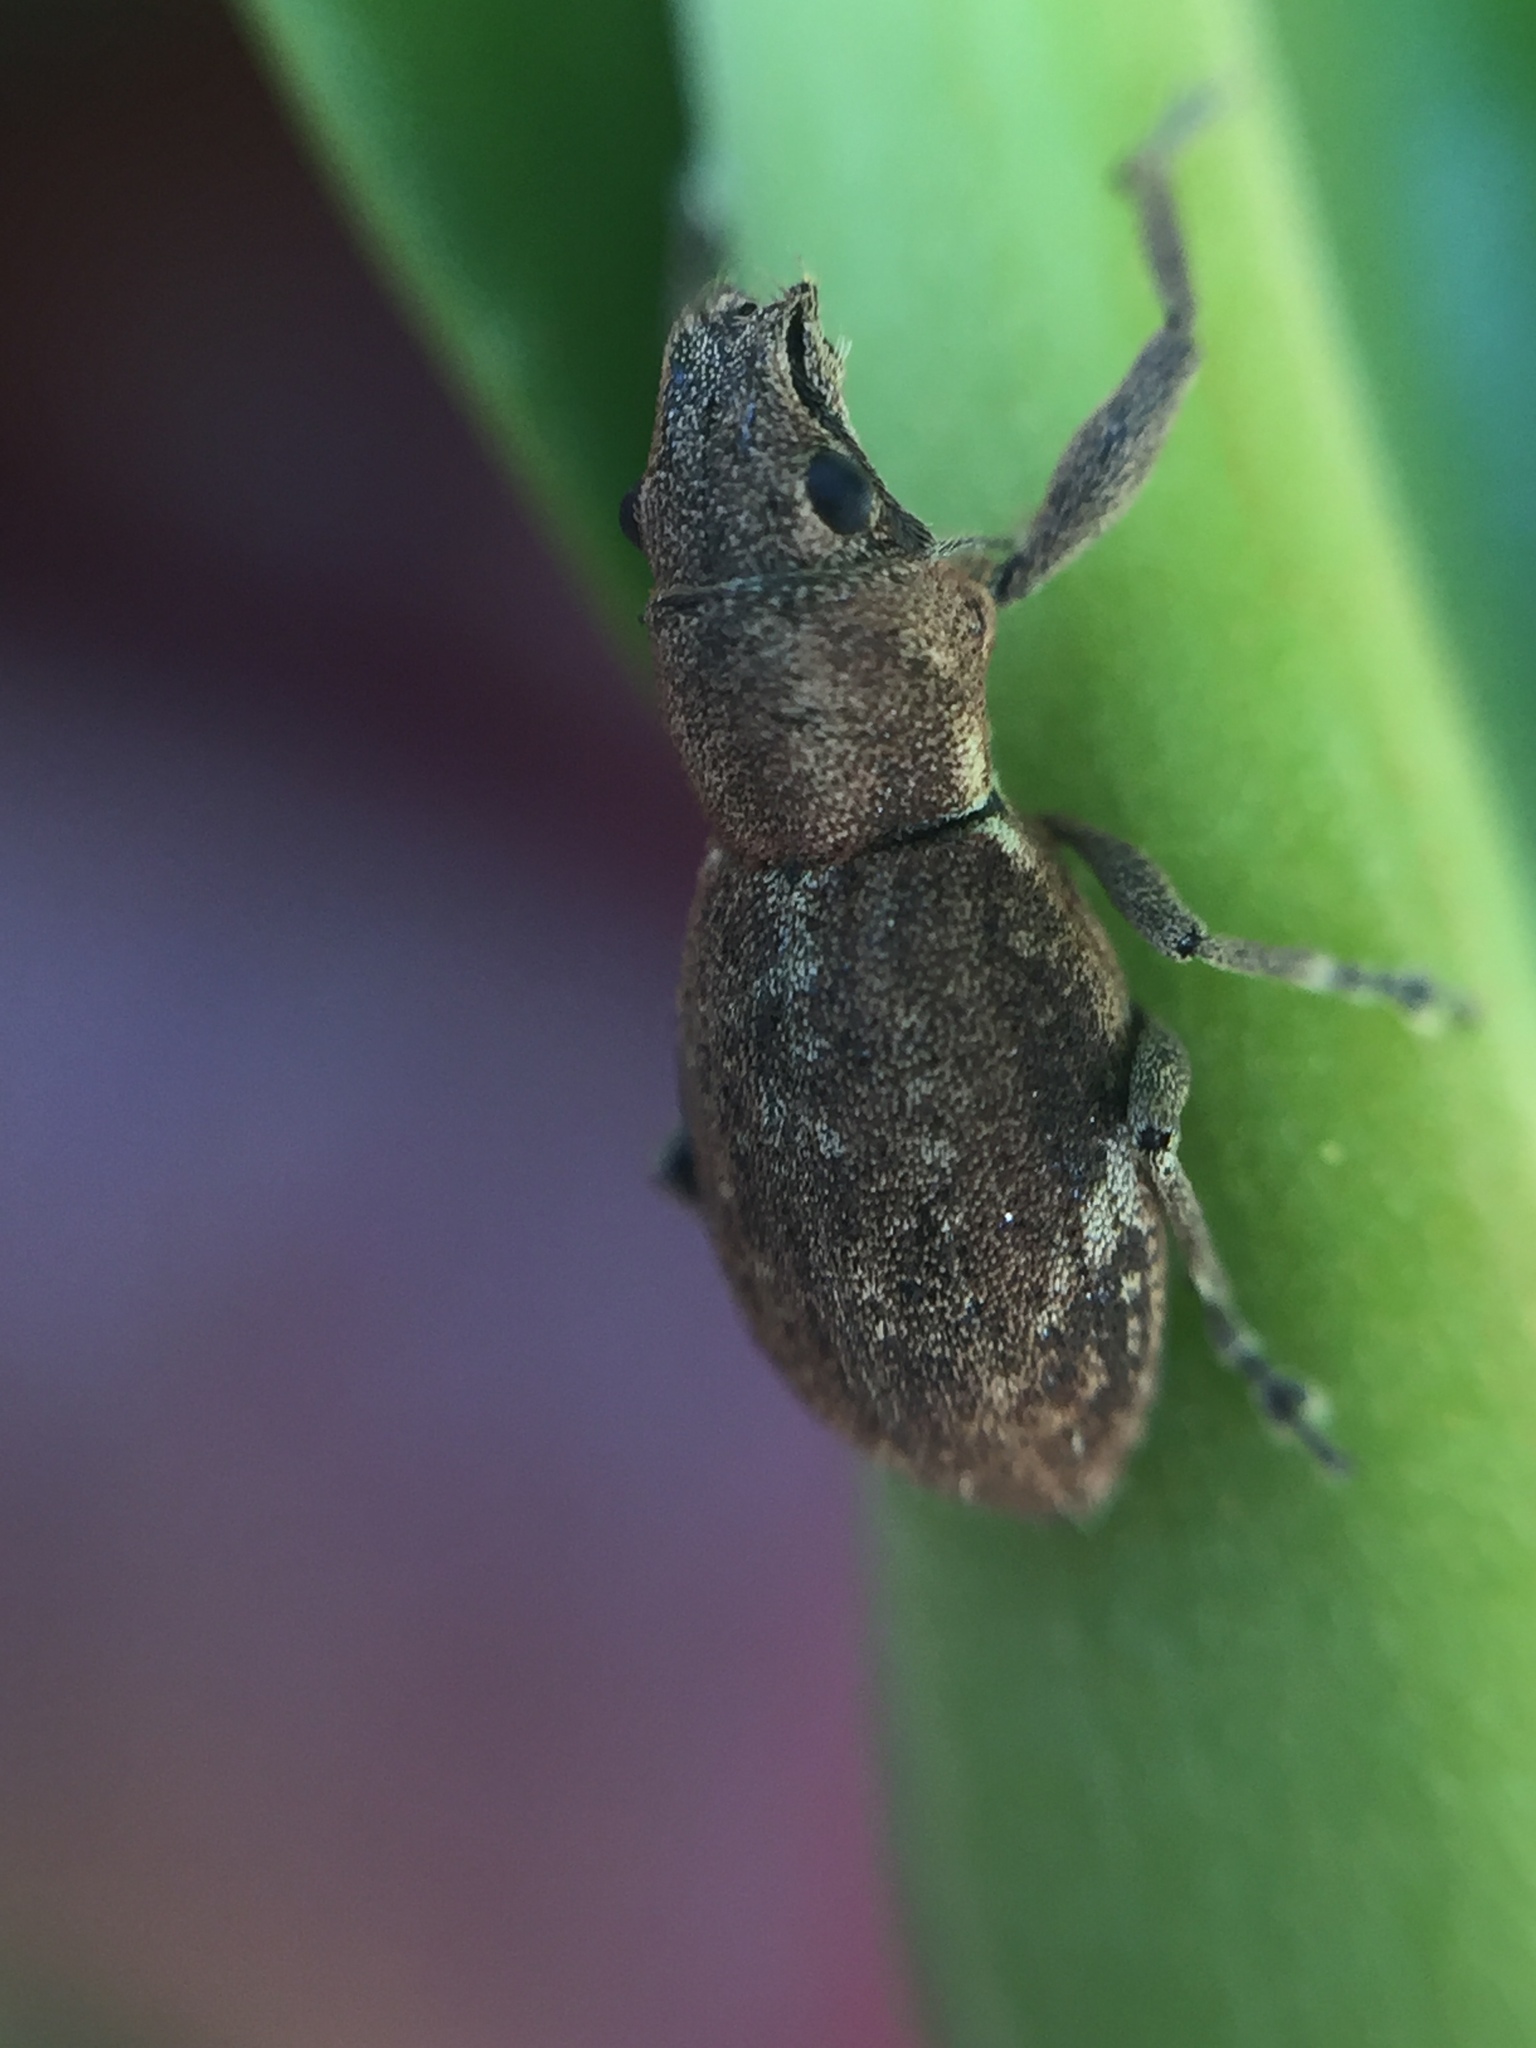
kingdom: Animalia
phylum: Arthropoda
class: Insecta
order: Coleoptera
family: Curculionidae
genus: Naupactus
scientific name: Naupactus cervinus
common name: Fuller rose beetle
